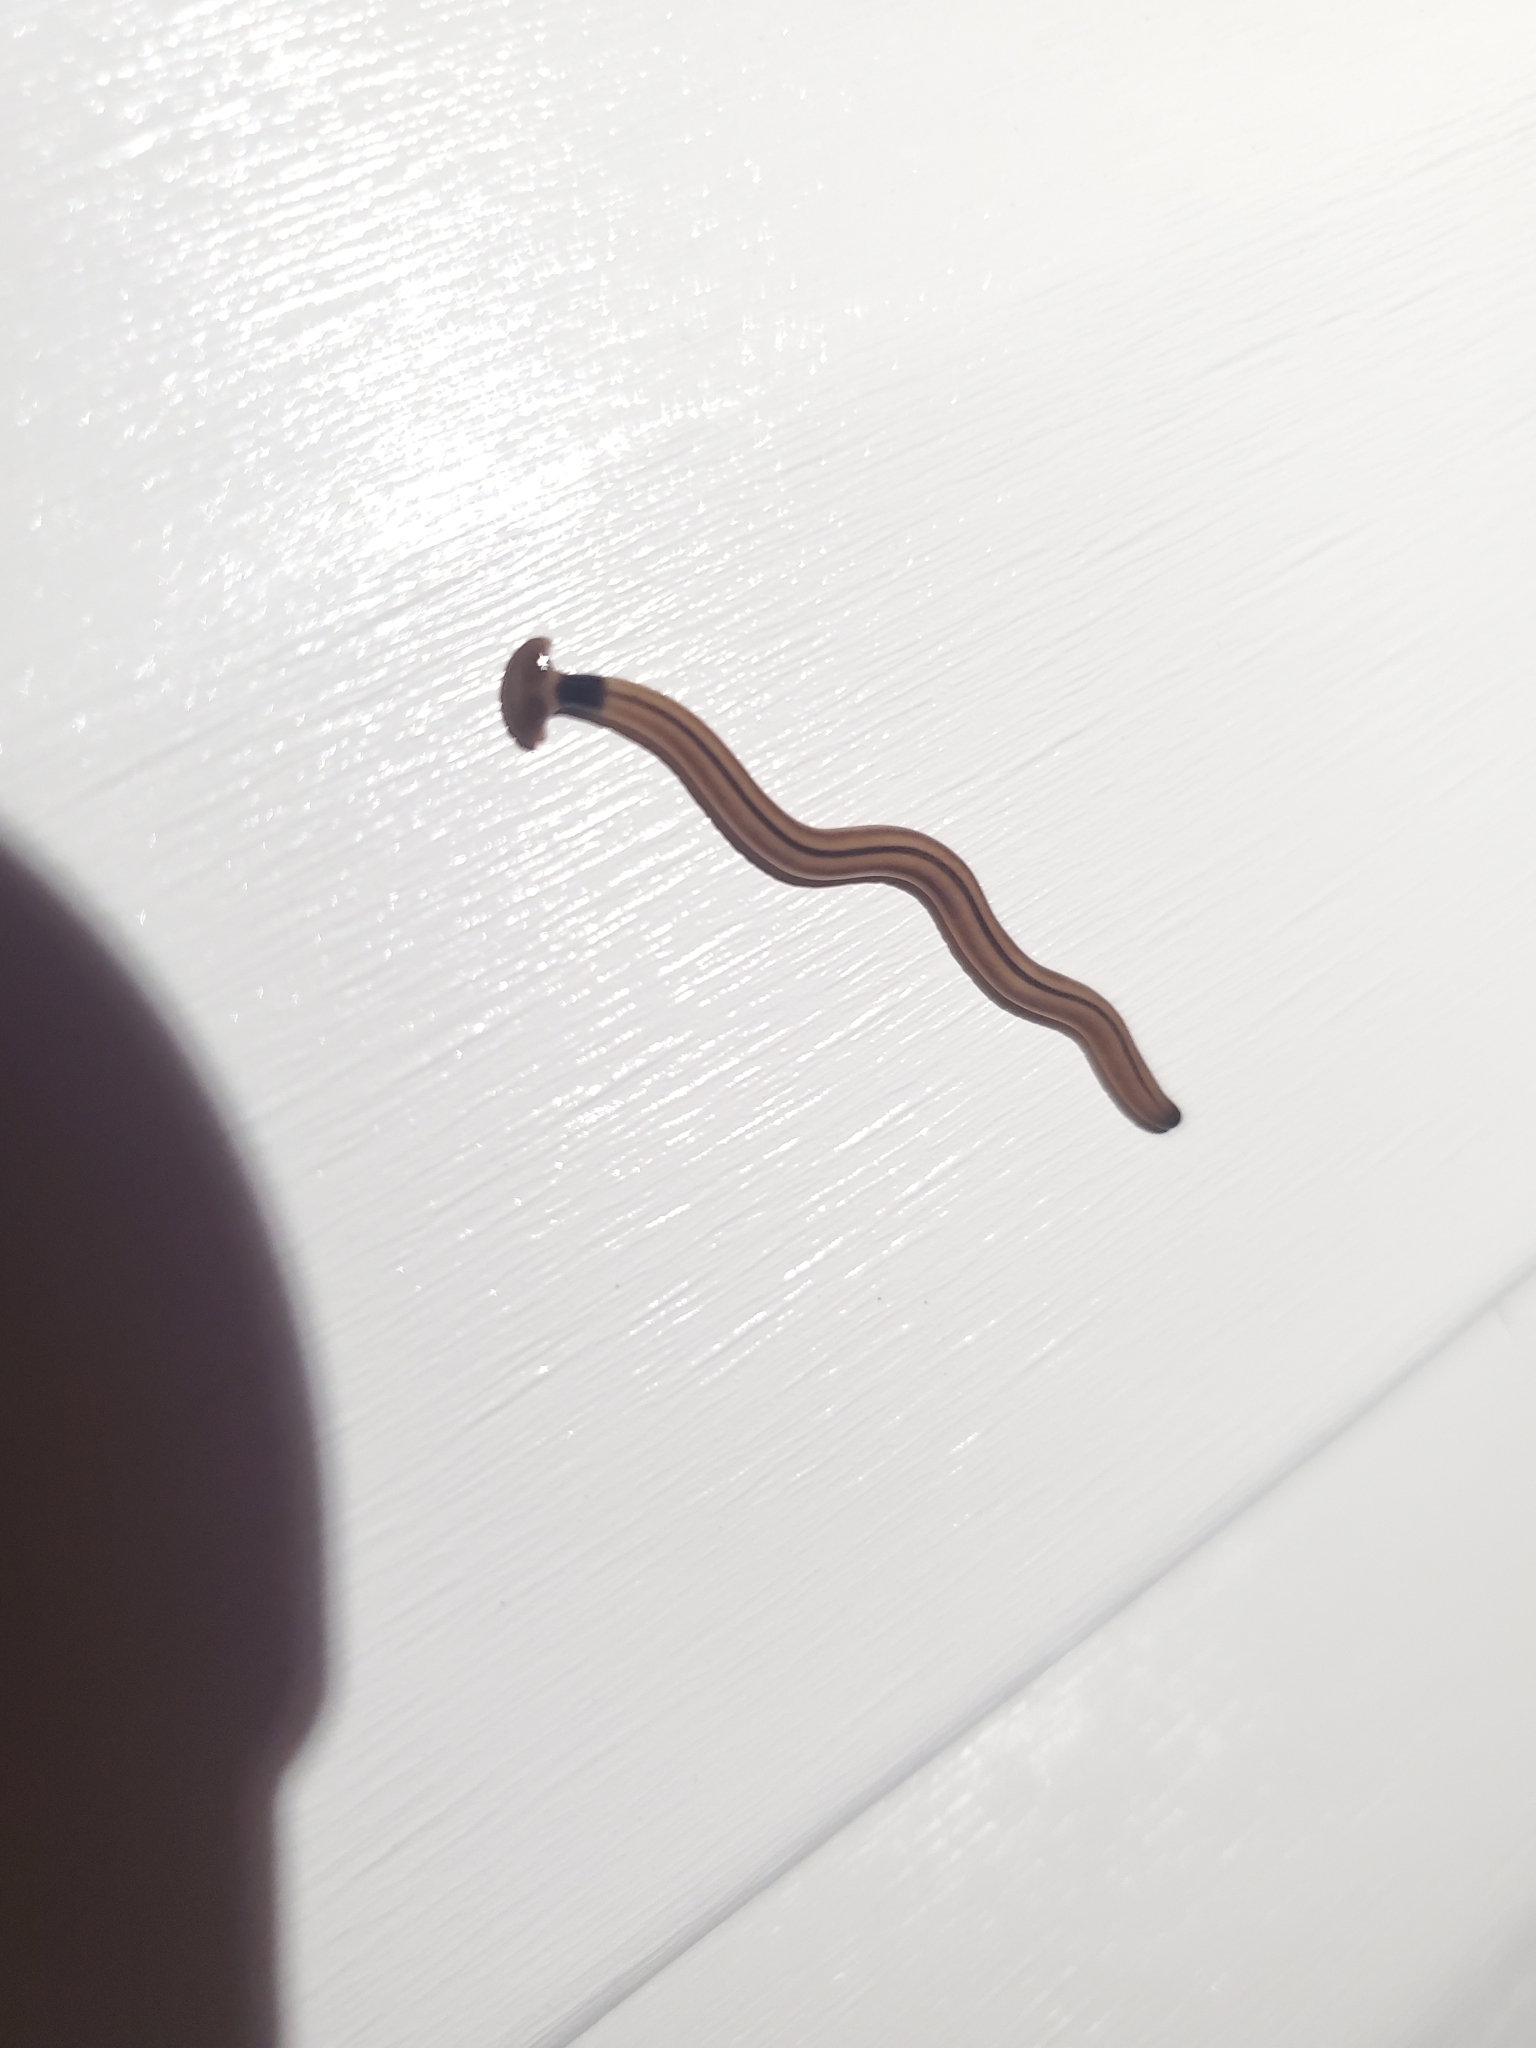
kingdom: Animalia
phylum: Platyhelminthes
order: Tricladida
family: Geoplanidae
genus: Bipalium
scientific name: Bipalium vagum
